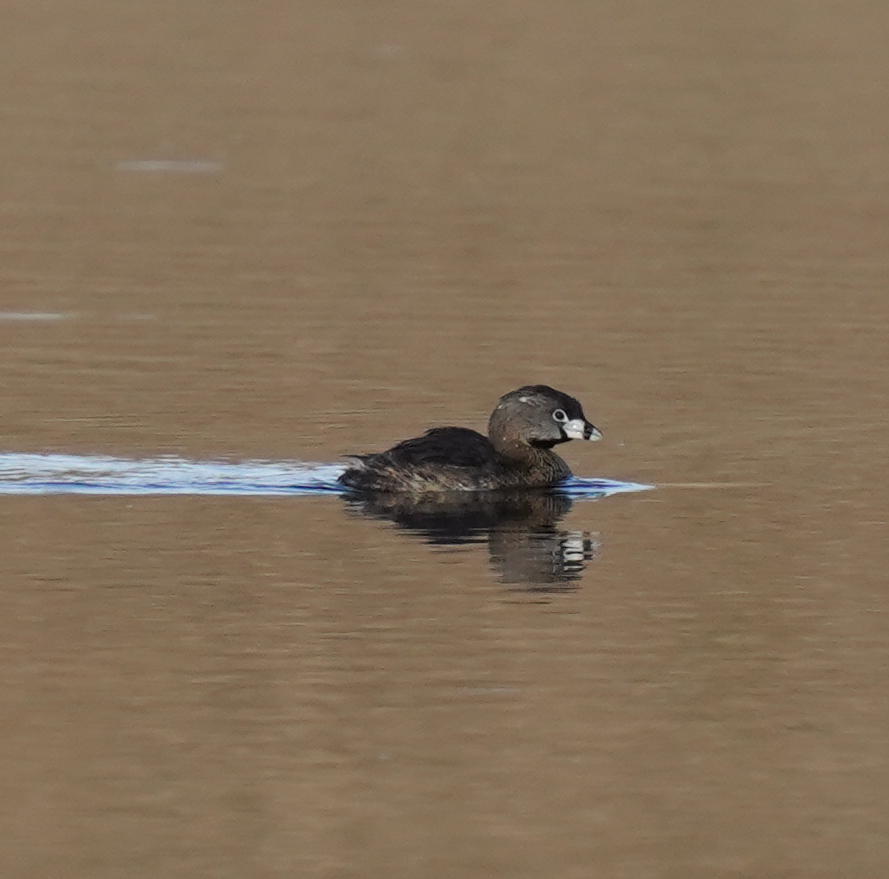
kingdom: Animalia
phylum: Chordata
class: Aves
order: Podicipediformes
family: Podicipedidae
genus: Podilymbus
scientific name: Podilymbus podiceps
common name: Pied-billed grebe
